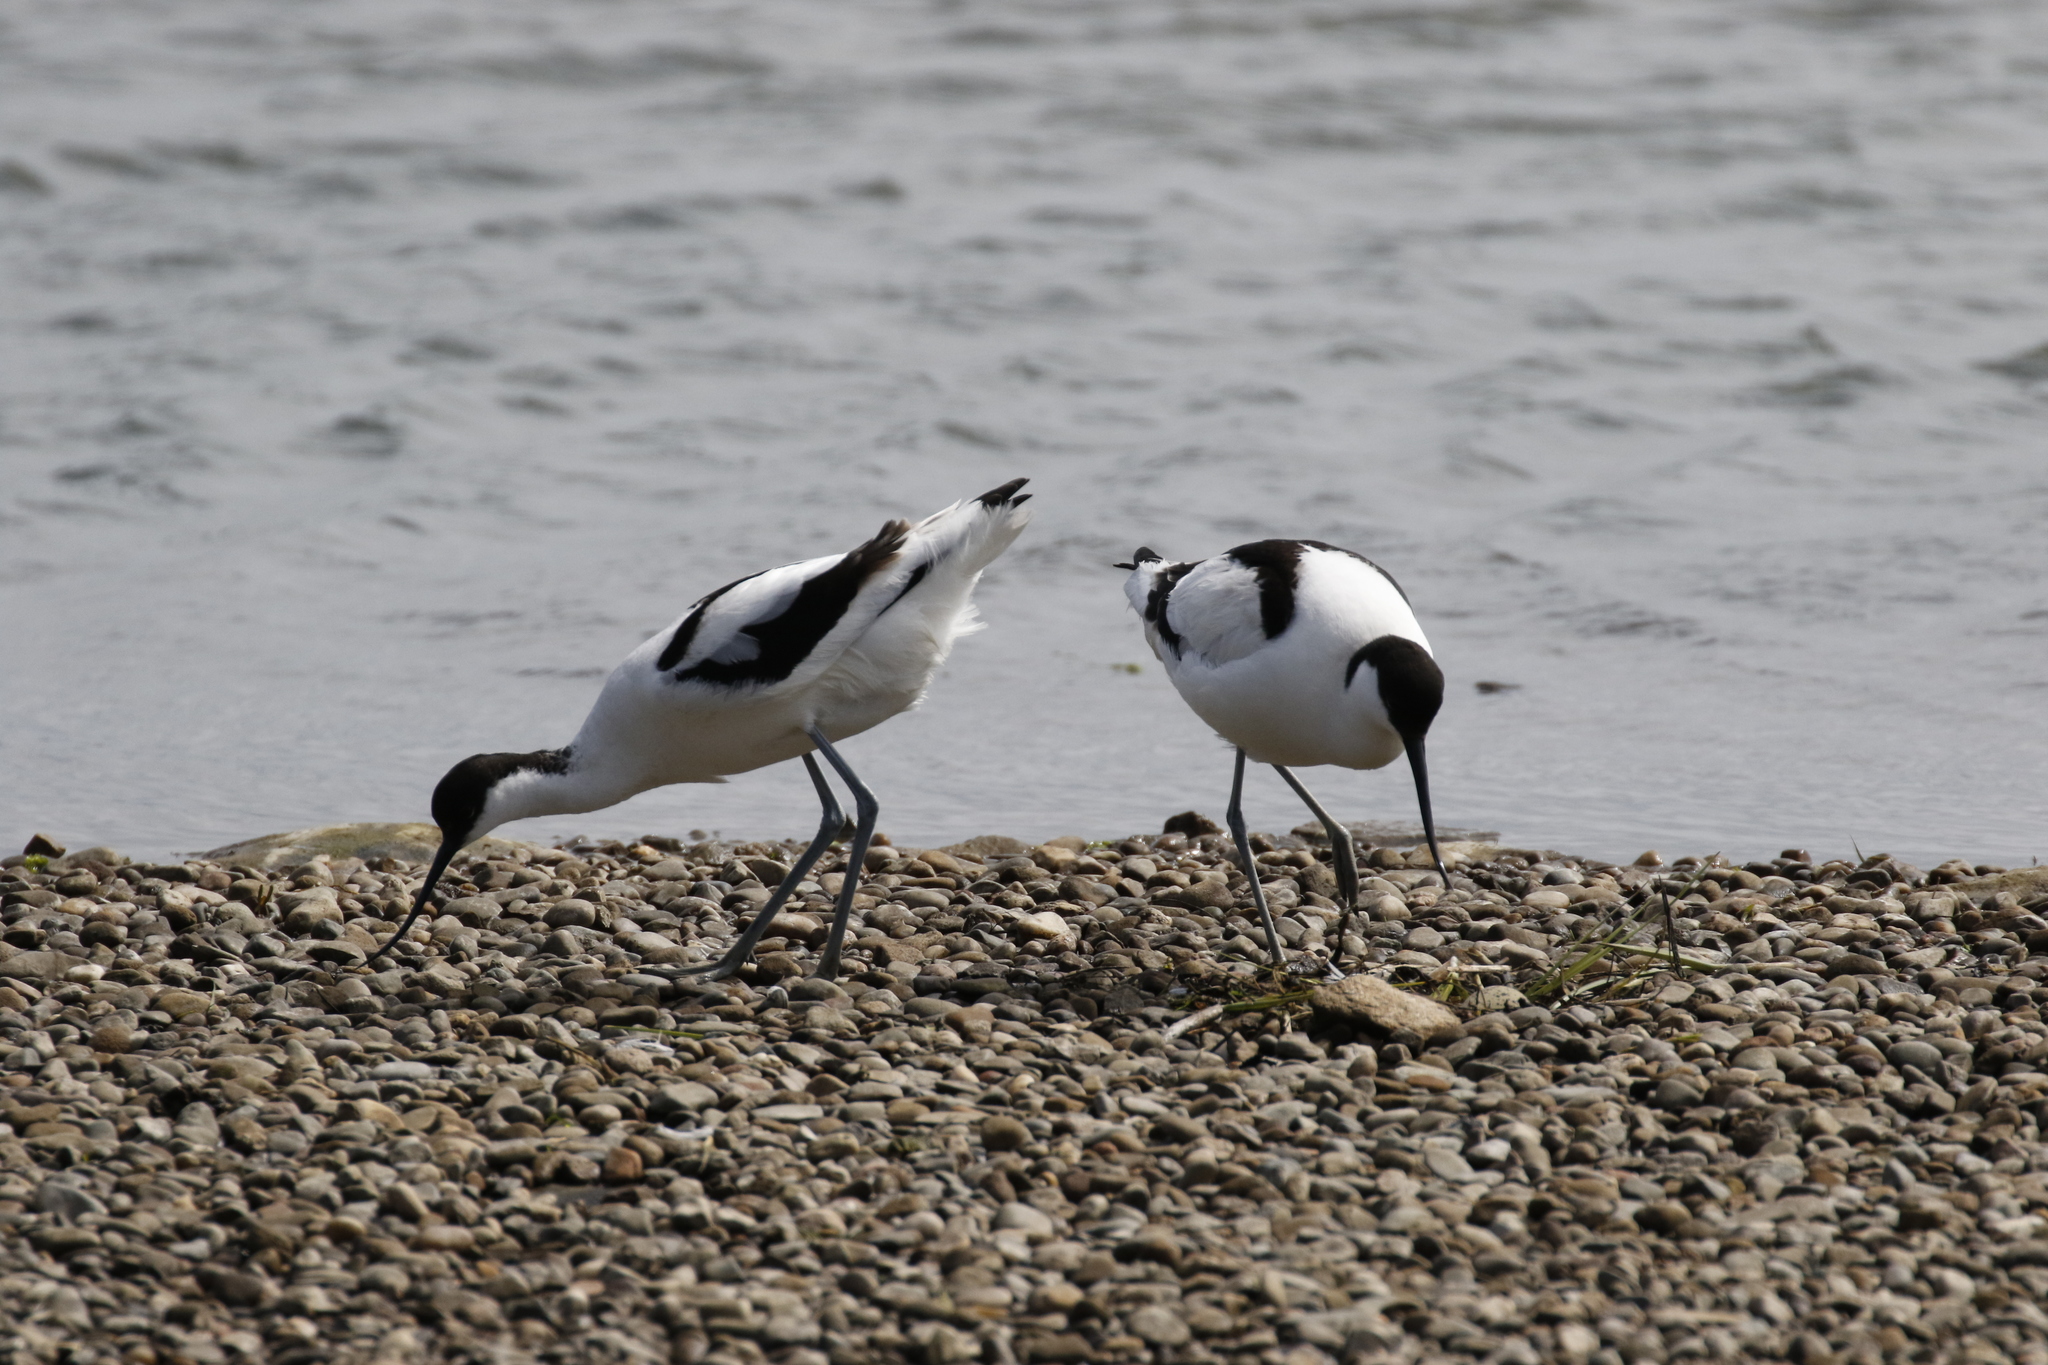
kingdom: Animalia
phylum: Chordata
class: Aves
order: Charadriiformes
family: Recurvirostridae
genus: Recurvirostra
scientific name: Recurvirostra avosetta
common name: Pied avocet
